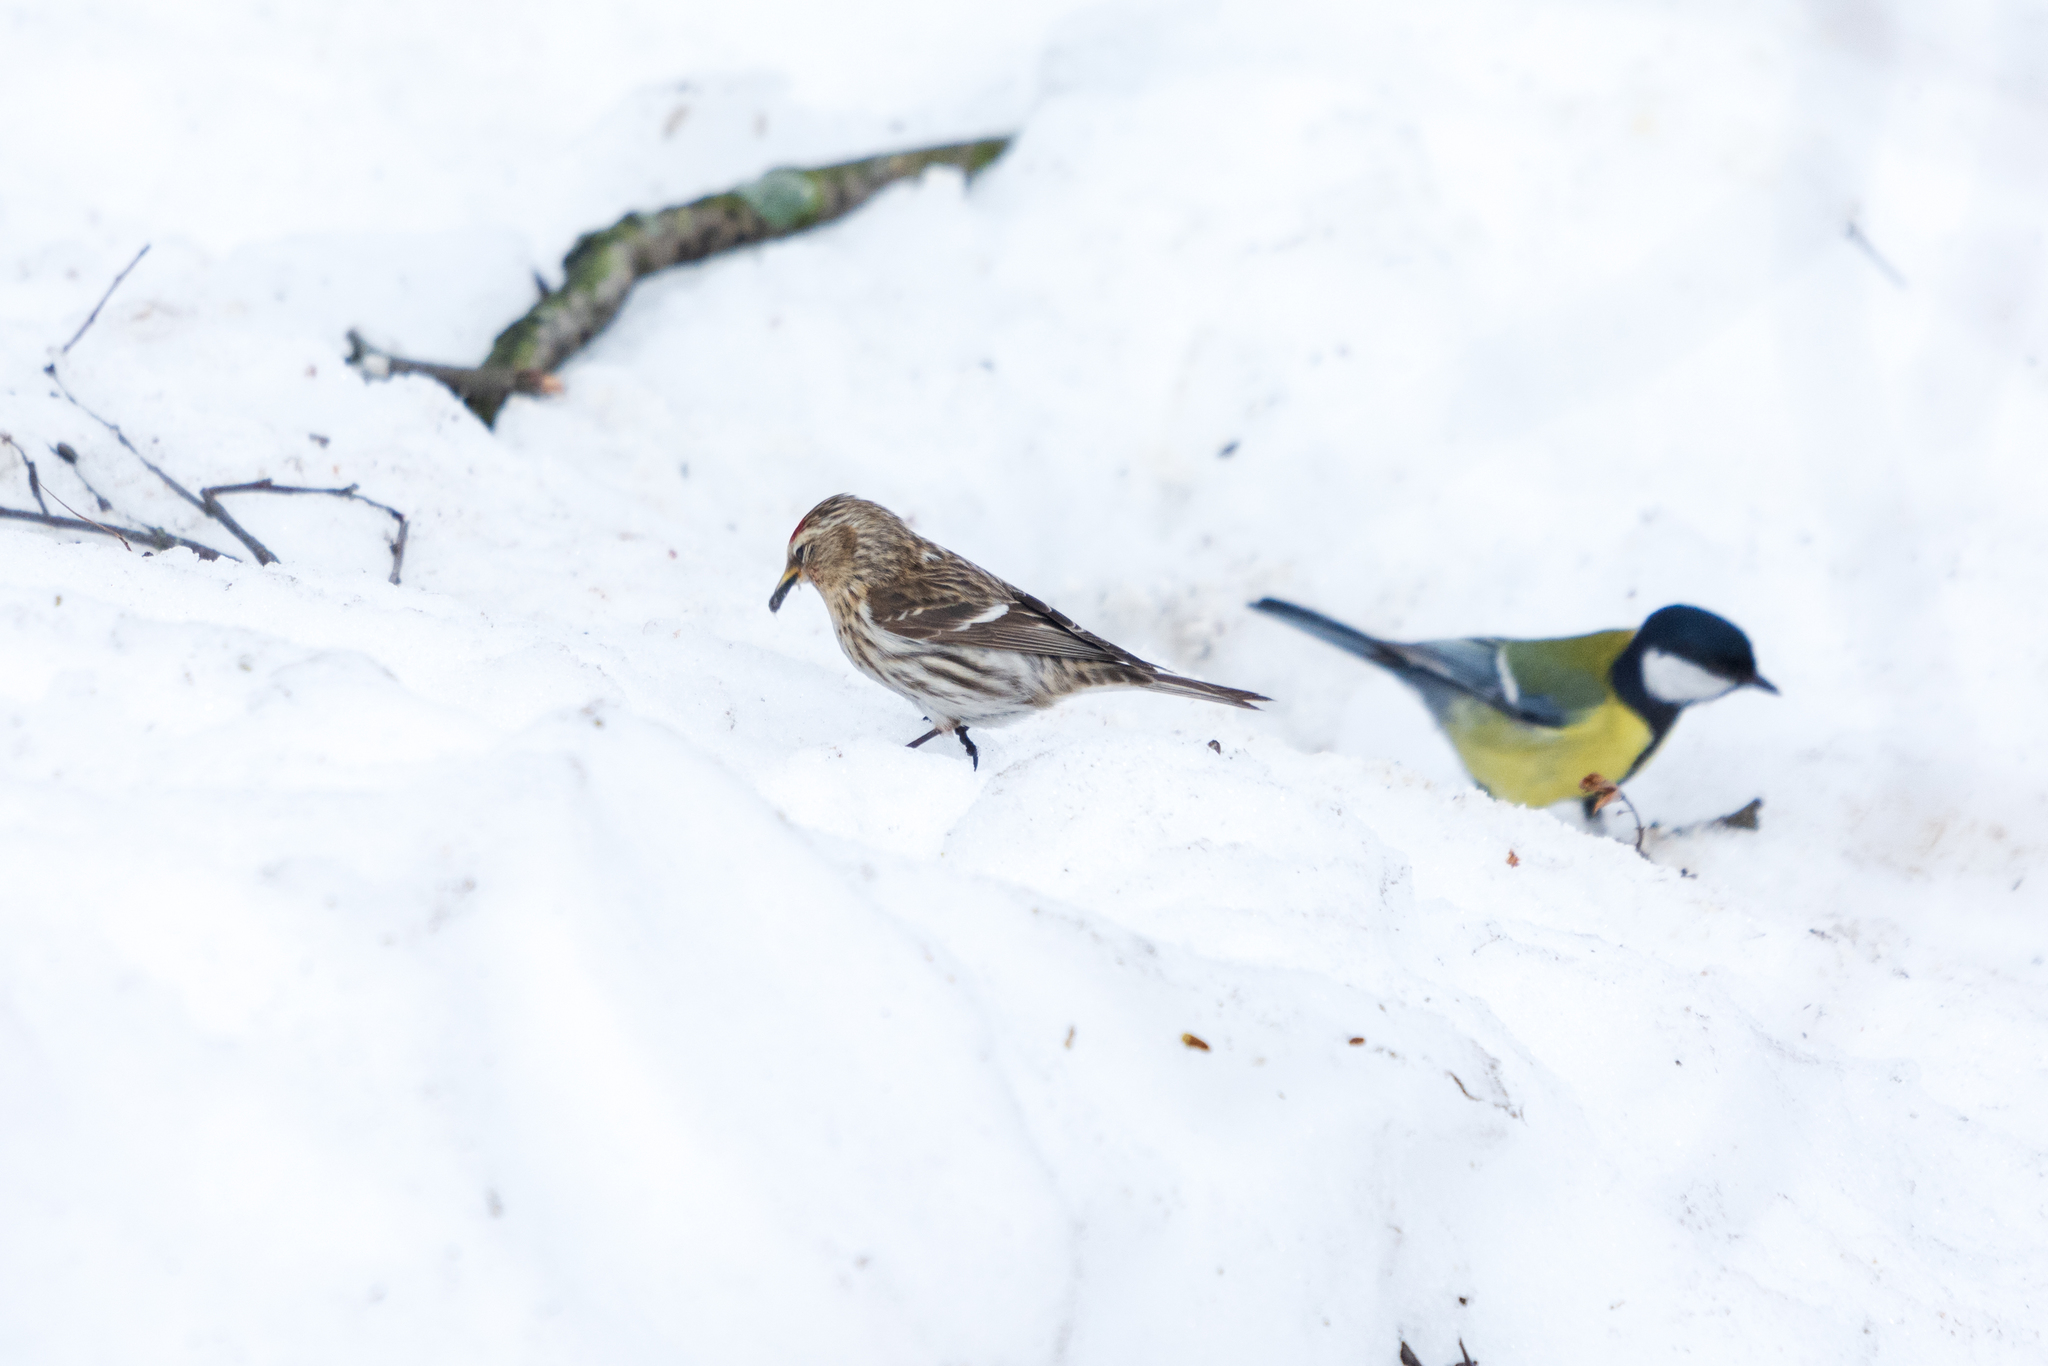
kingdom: Animalia
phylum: Chordata
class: Aves
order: Passeriformes
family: Fringillidae
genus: Acanthis
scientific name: Acanthis flammea
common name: Common redpoll
